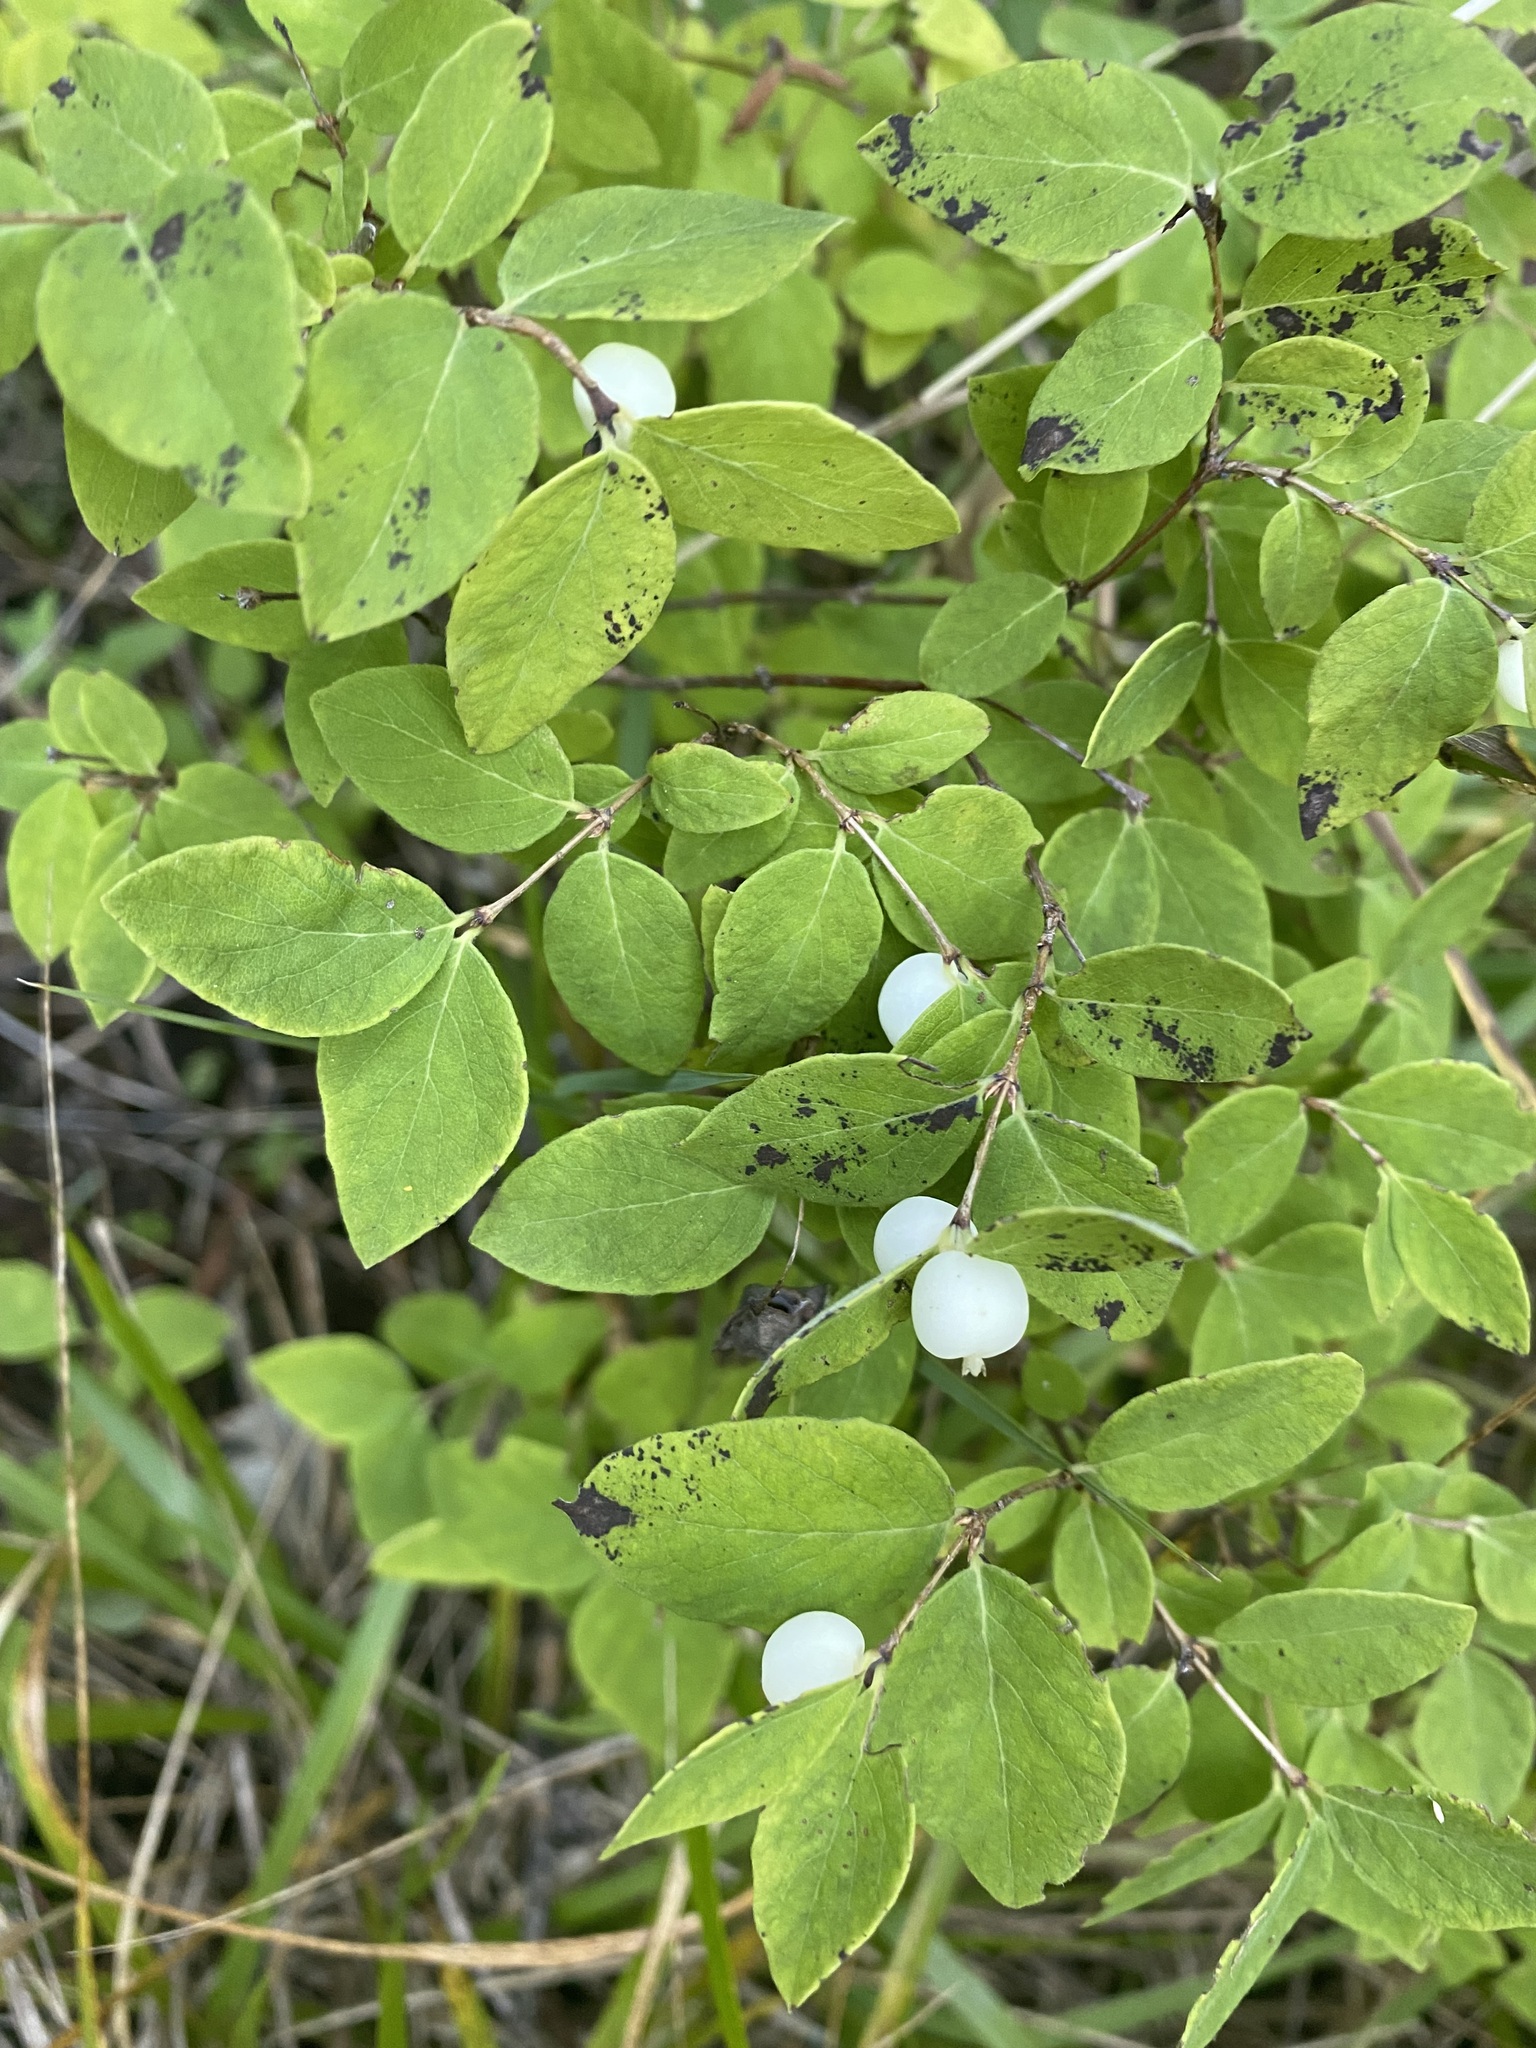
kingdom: Plantae
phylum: Tracheophyta
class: Magnoliopsida
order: Dipsacales
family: Caprifoliaceae
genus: Symphoricarpos
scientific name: Symphoricarpos albus
